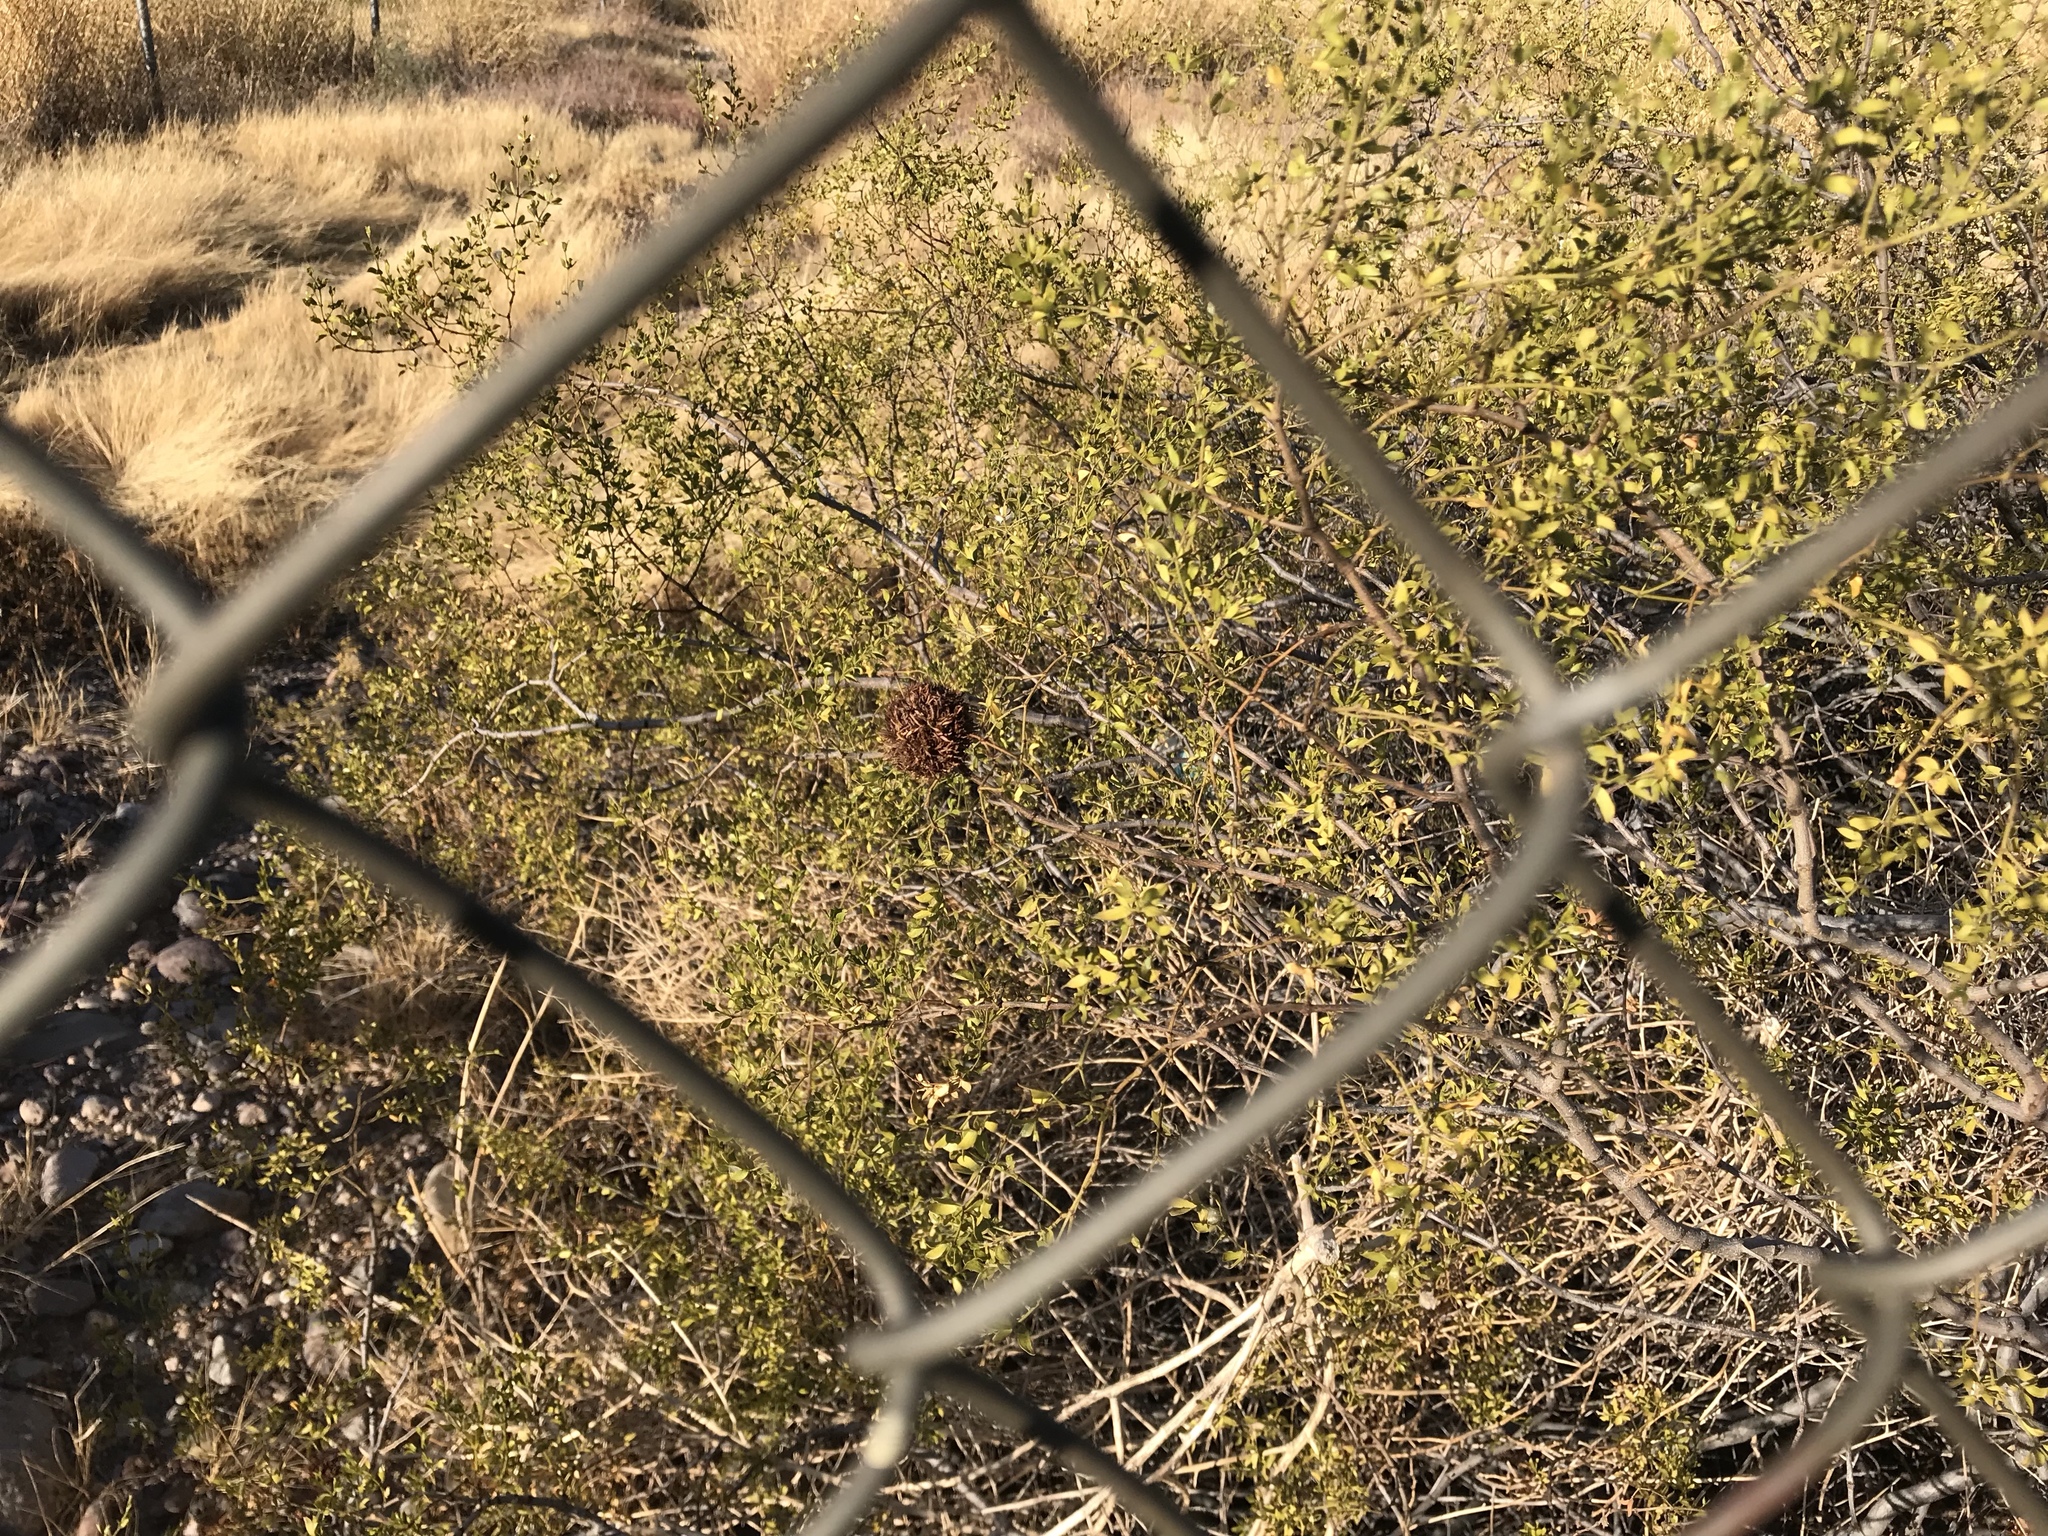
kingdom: Animalia
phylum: Arthropoda
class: Insecta
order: Diptera
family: Cecidomyiidae
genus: Asphondylia
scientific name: Asphondylia auripila
